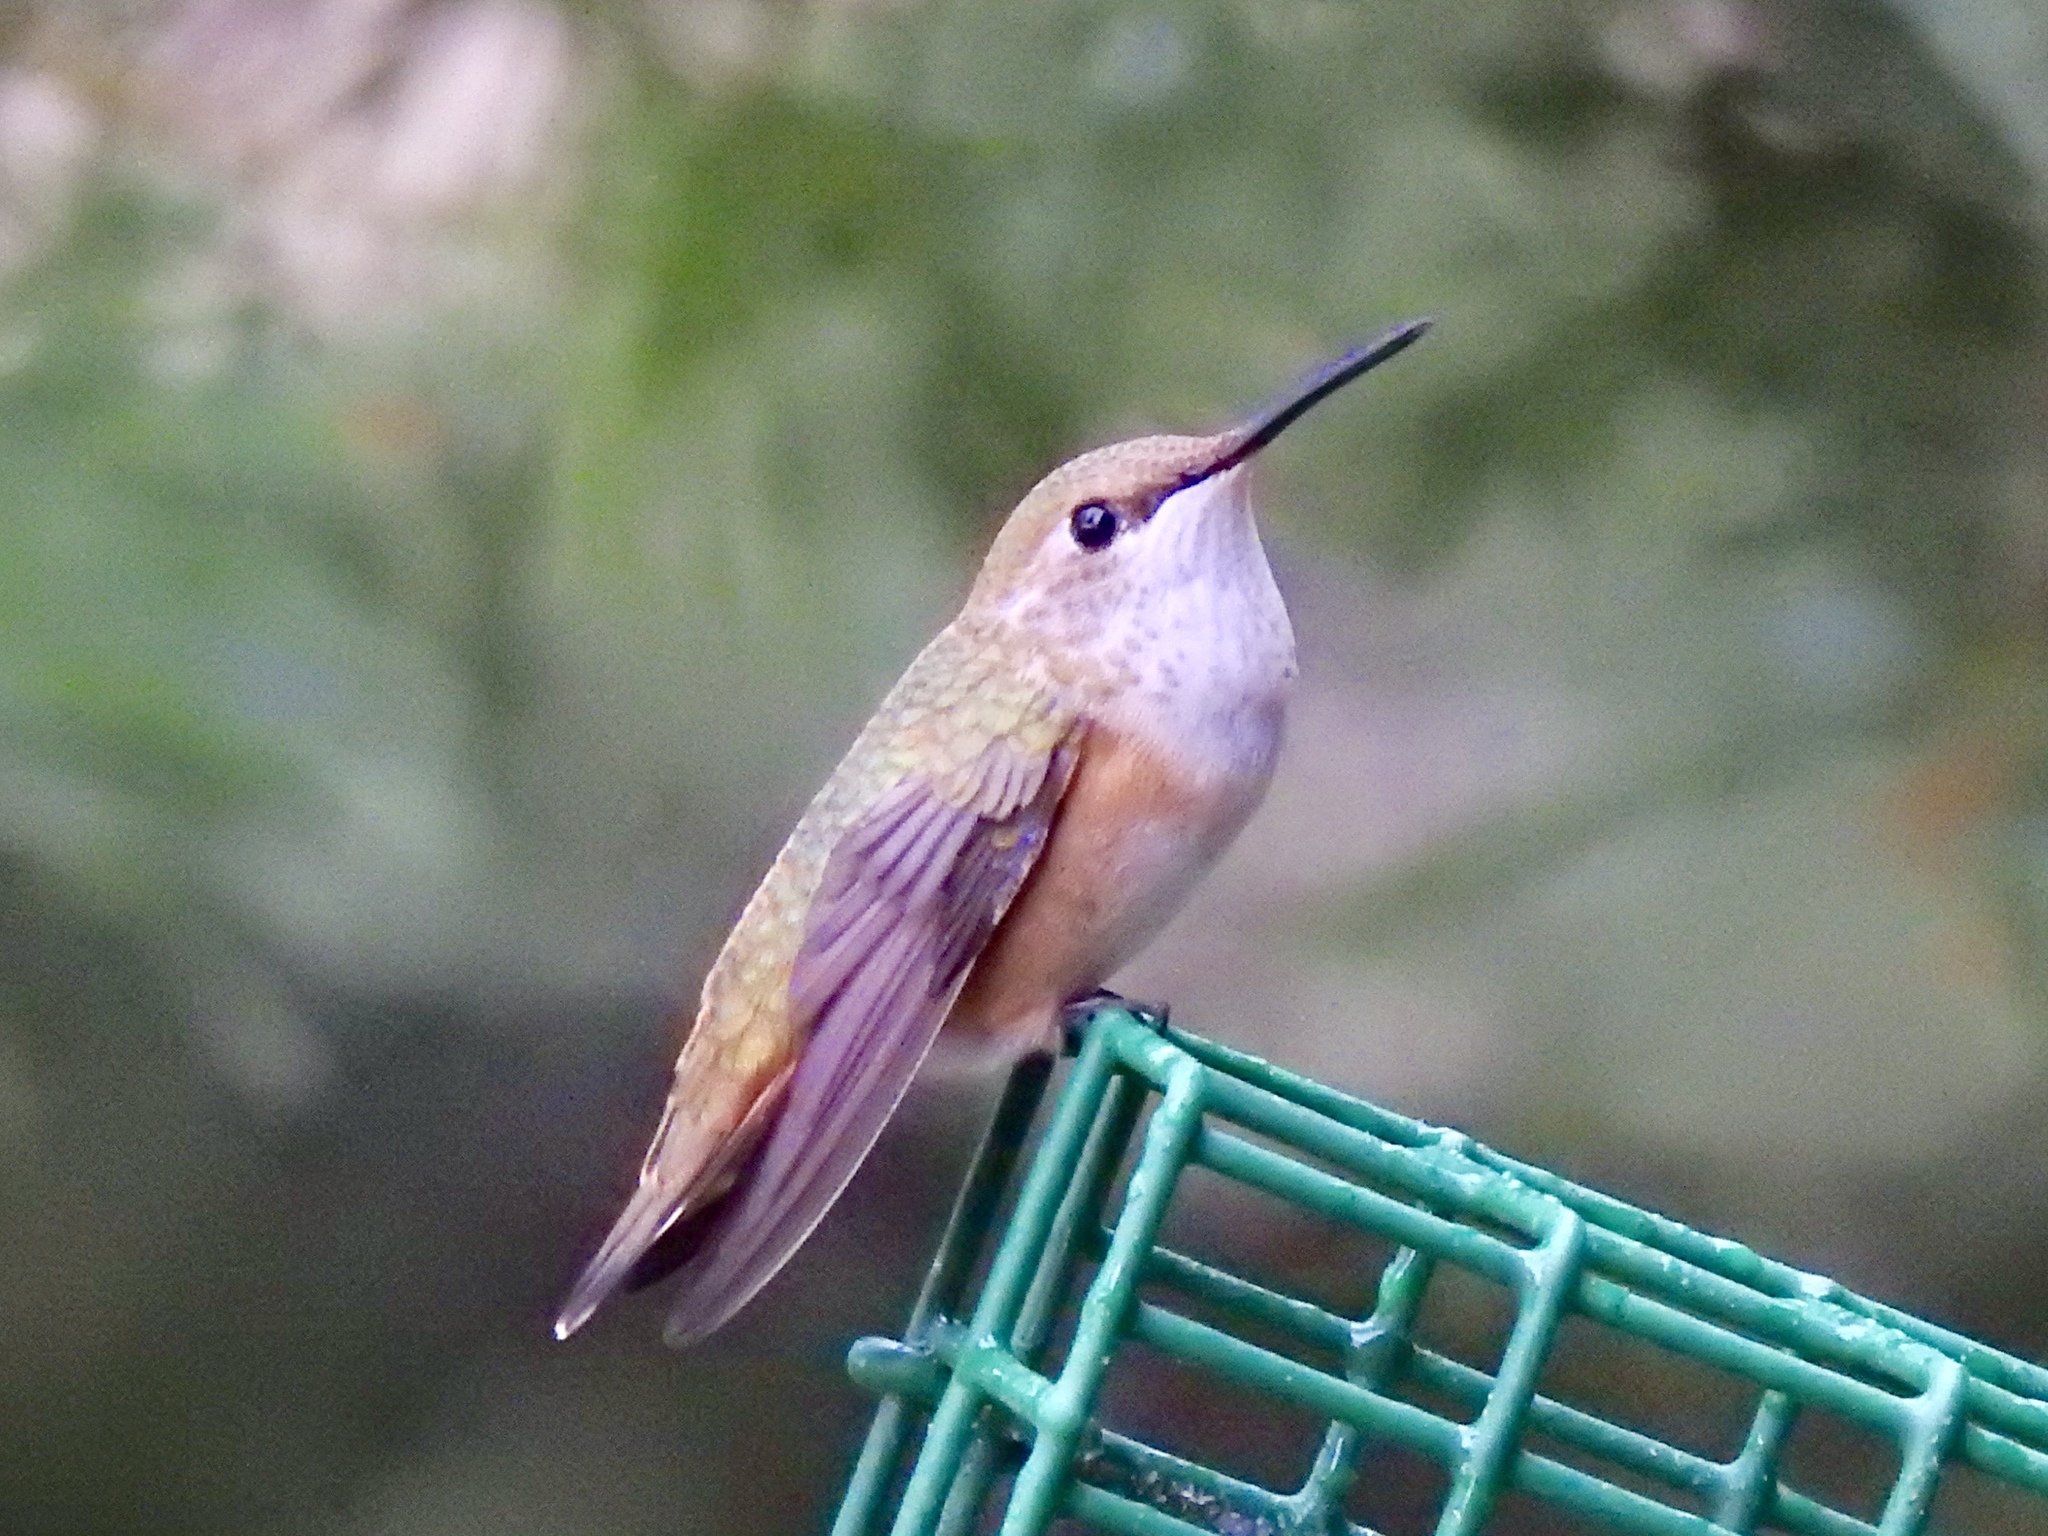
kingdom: Animalia
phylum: Chordata
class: Aves
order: Apodiformes
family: Trochilidae
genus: Selasphorus
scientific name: Selasphorus rufus
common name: Rufous hummingbird
